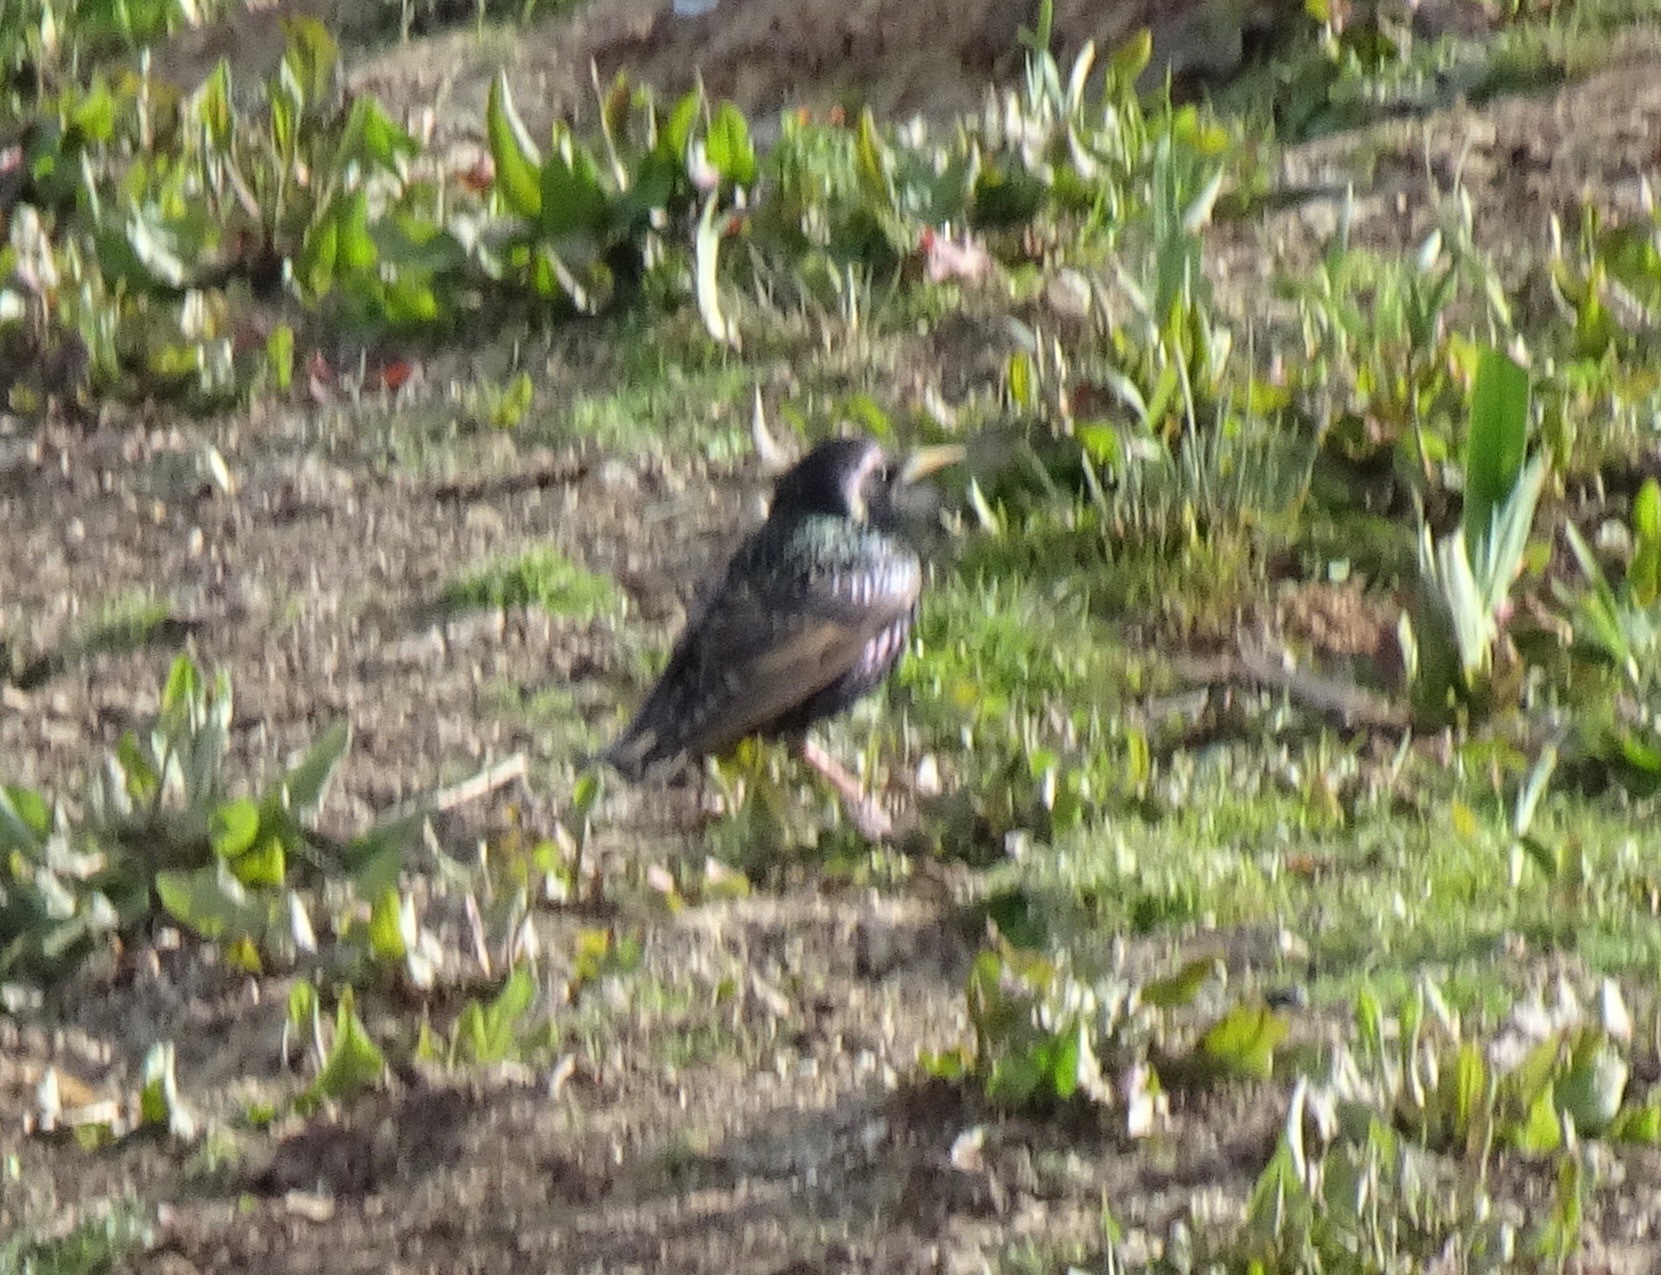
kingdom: Animalia
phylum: Chordata
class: Aves
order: Passeriformes
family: Sturnidae
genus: Sturnus
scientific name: Sturnus vulgaris
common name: Common starling
